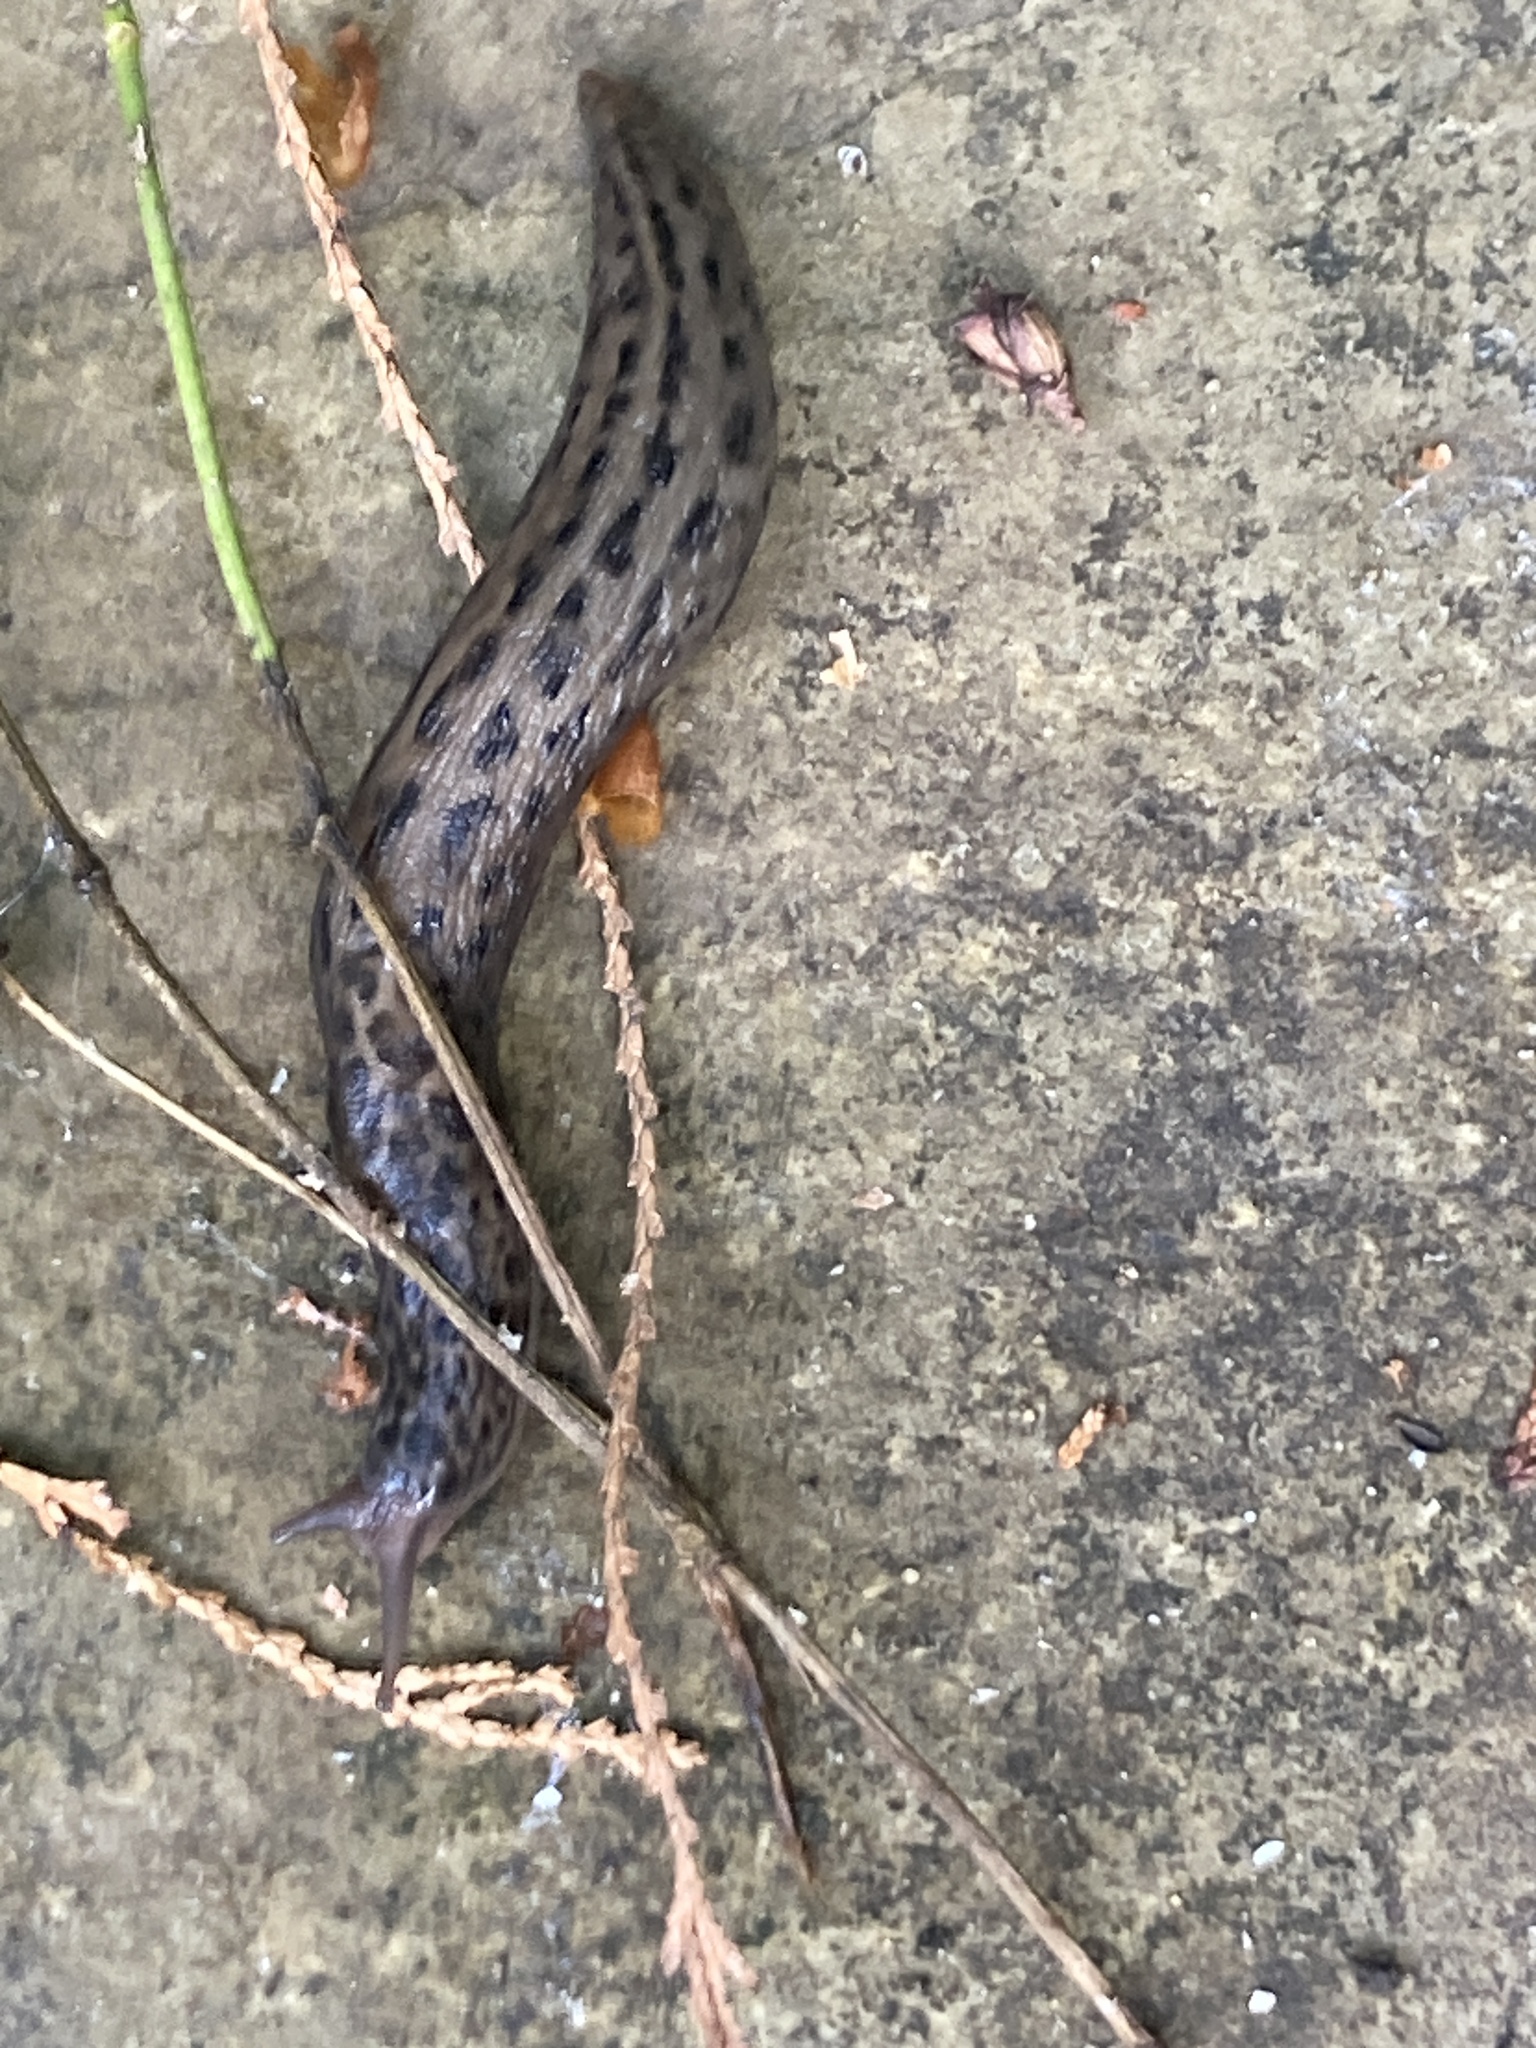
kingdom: Animalia
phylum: Mollusca
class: Gastropoda
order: Stylommatophora
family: Limacidae
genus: Limax
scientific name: Limax maximus
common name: Great grey slug
